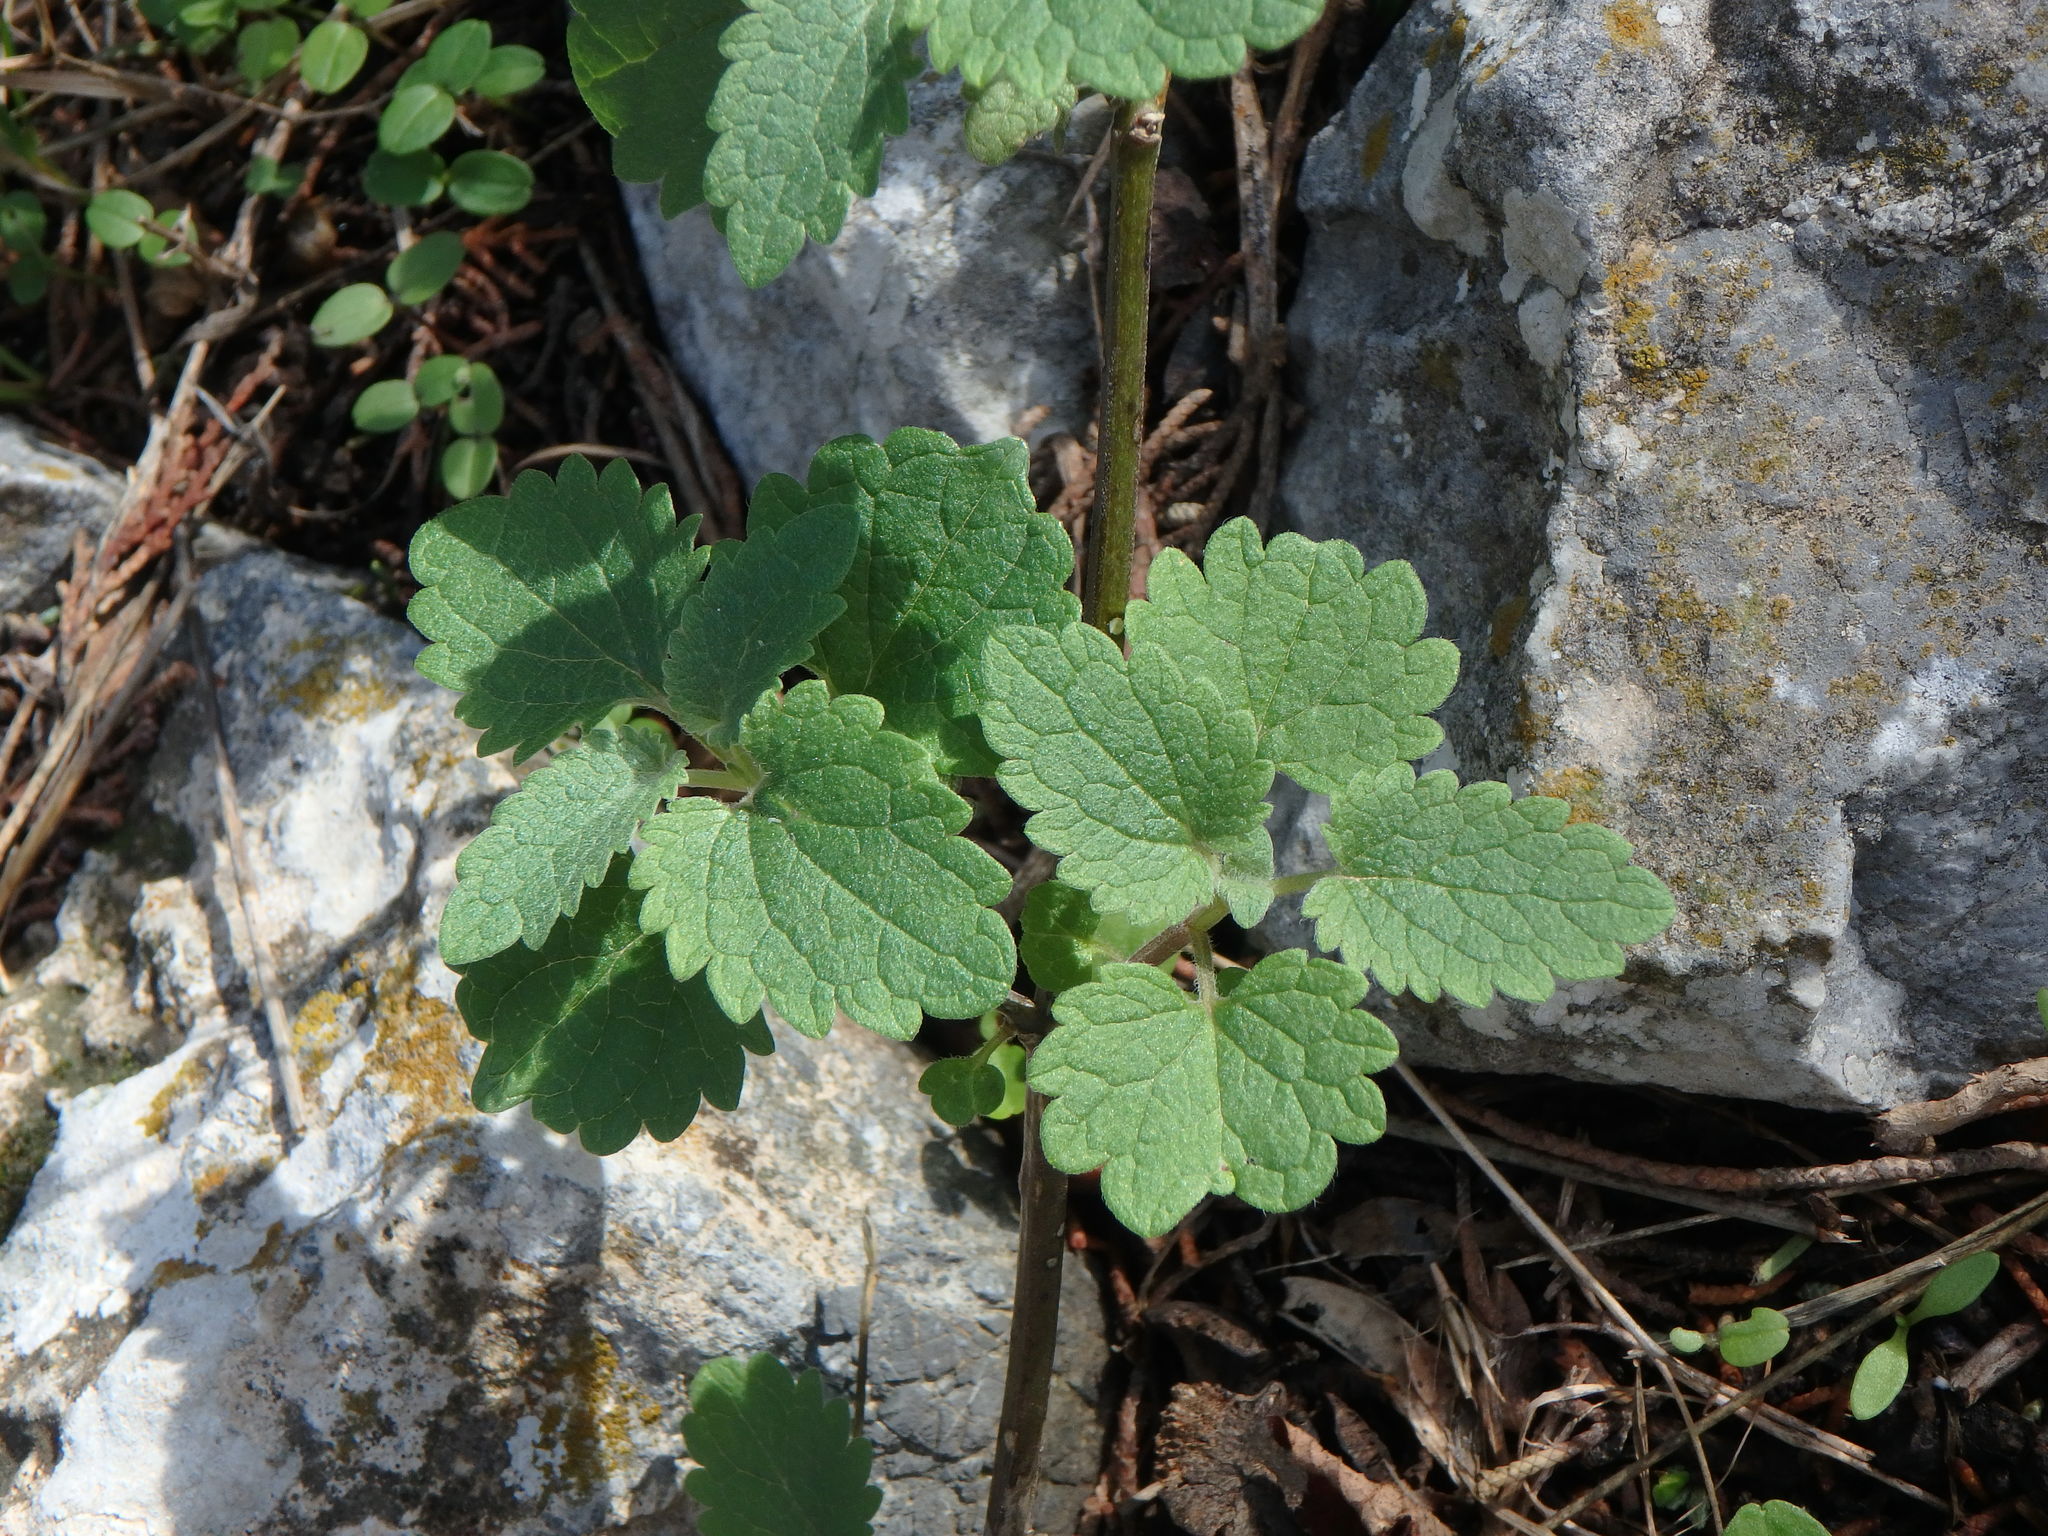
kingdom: Plantae
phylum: Tracheophyta
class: Magnoliopsida
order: Lamiales
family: Lamiaceae
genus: Scutellaria
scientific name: Scutellaria sibthorpii
